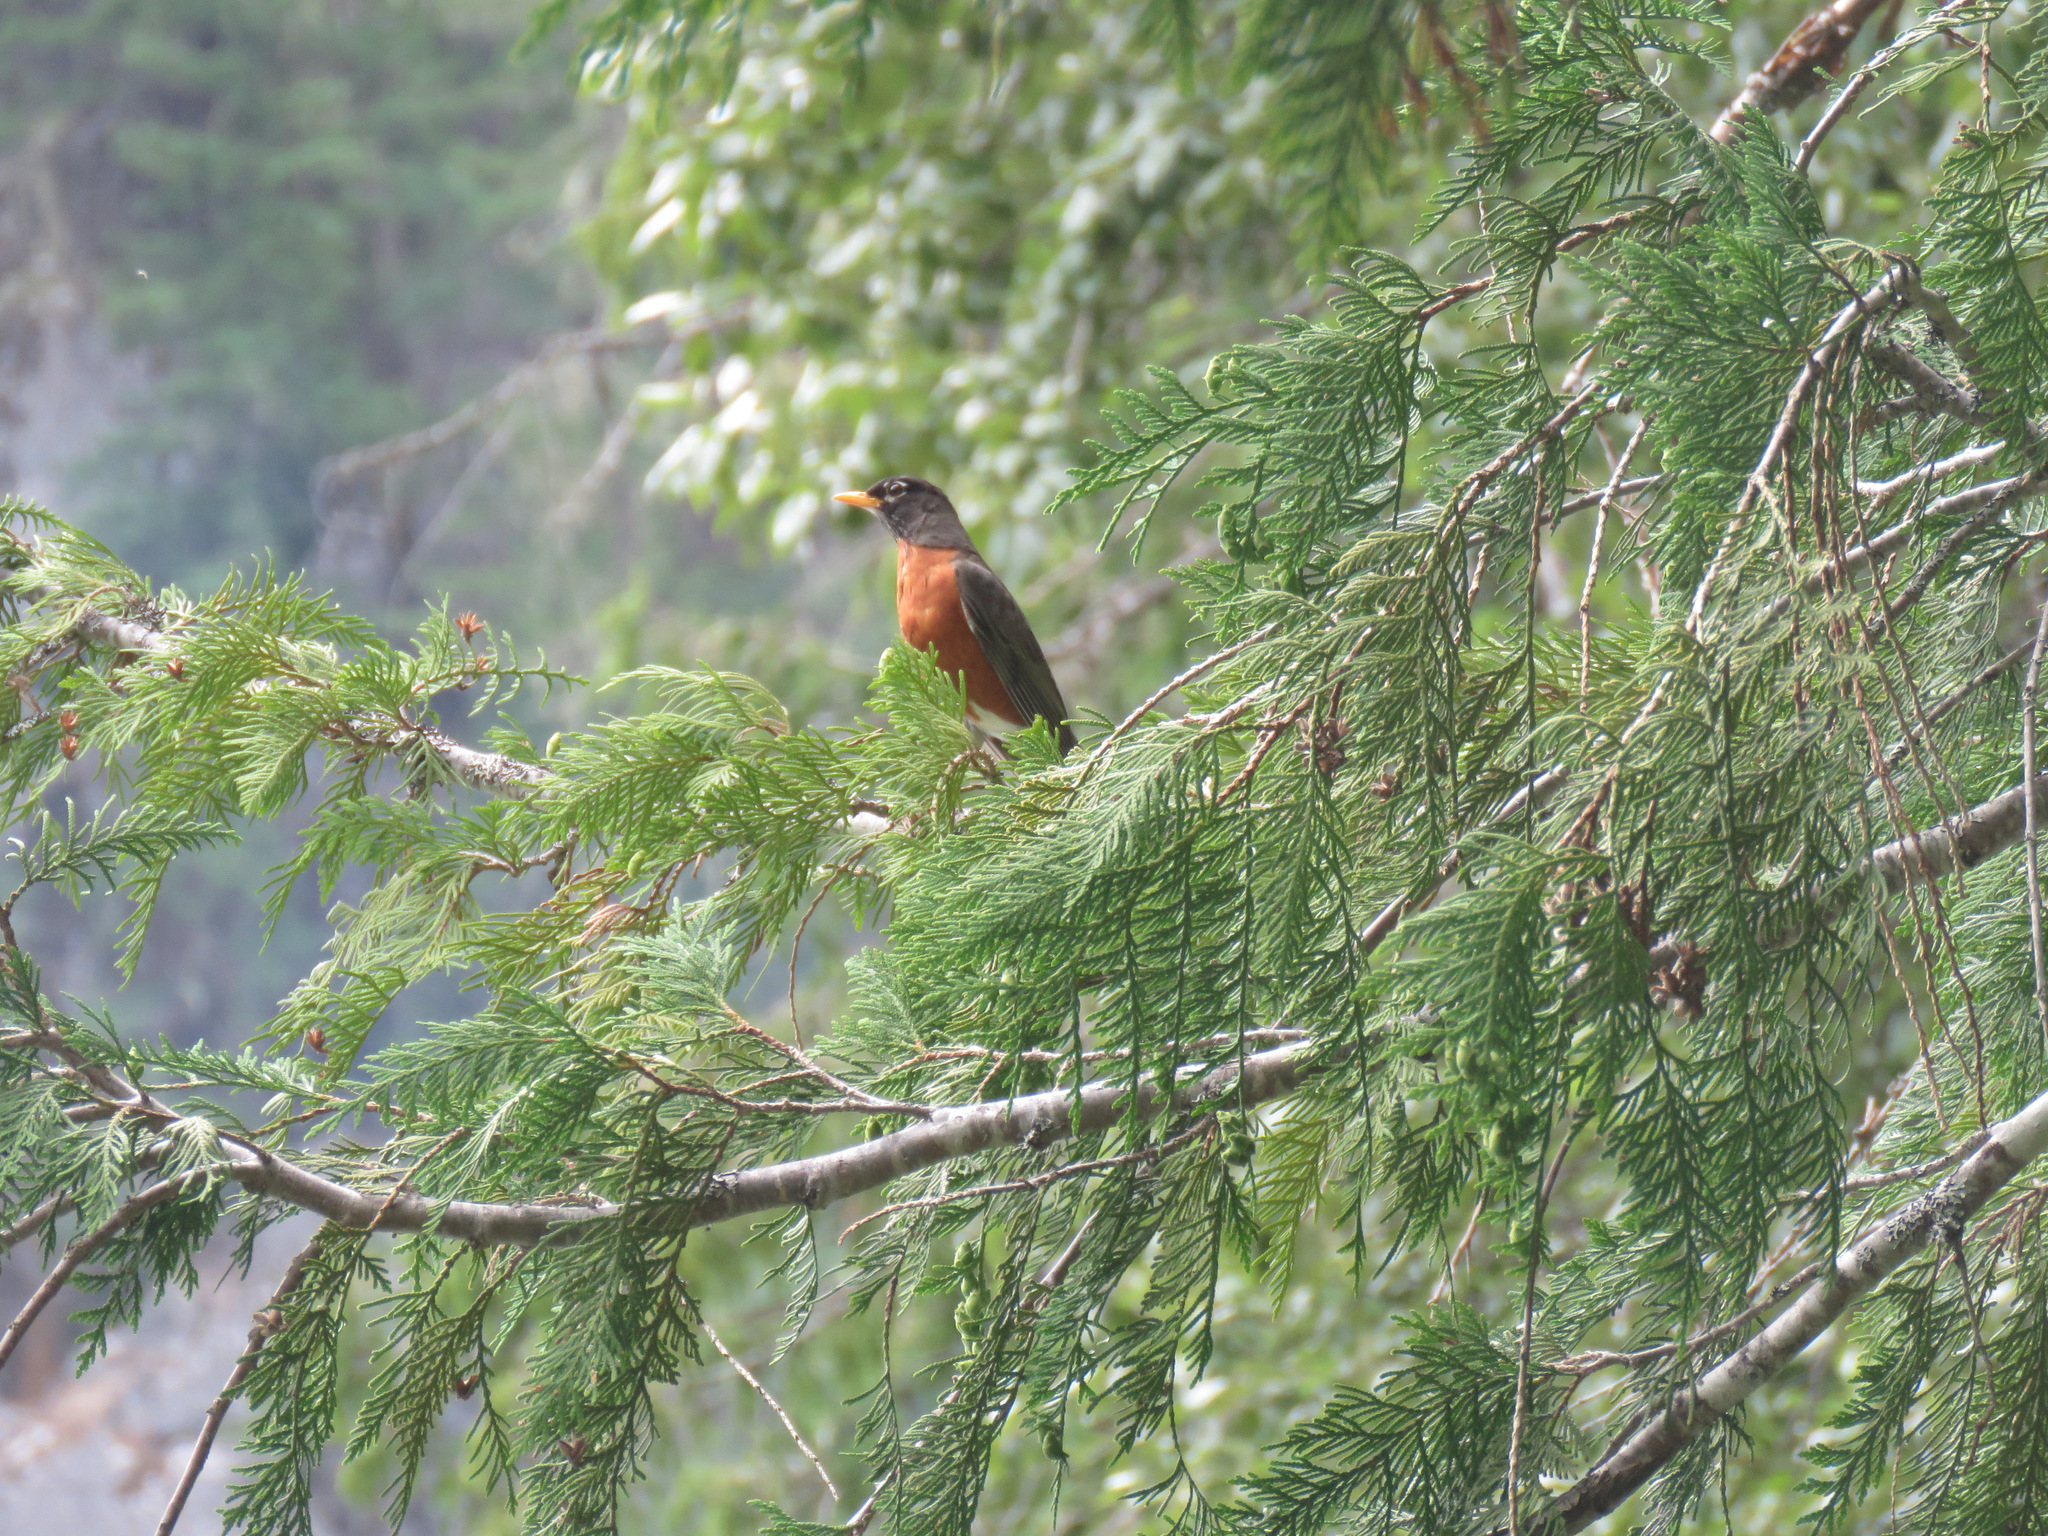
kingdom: Animalia
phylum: Chordata
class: Aves
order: Passeriformes
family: Turdidae
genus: Turdus
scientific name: Turdus migratorius
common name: American robin
